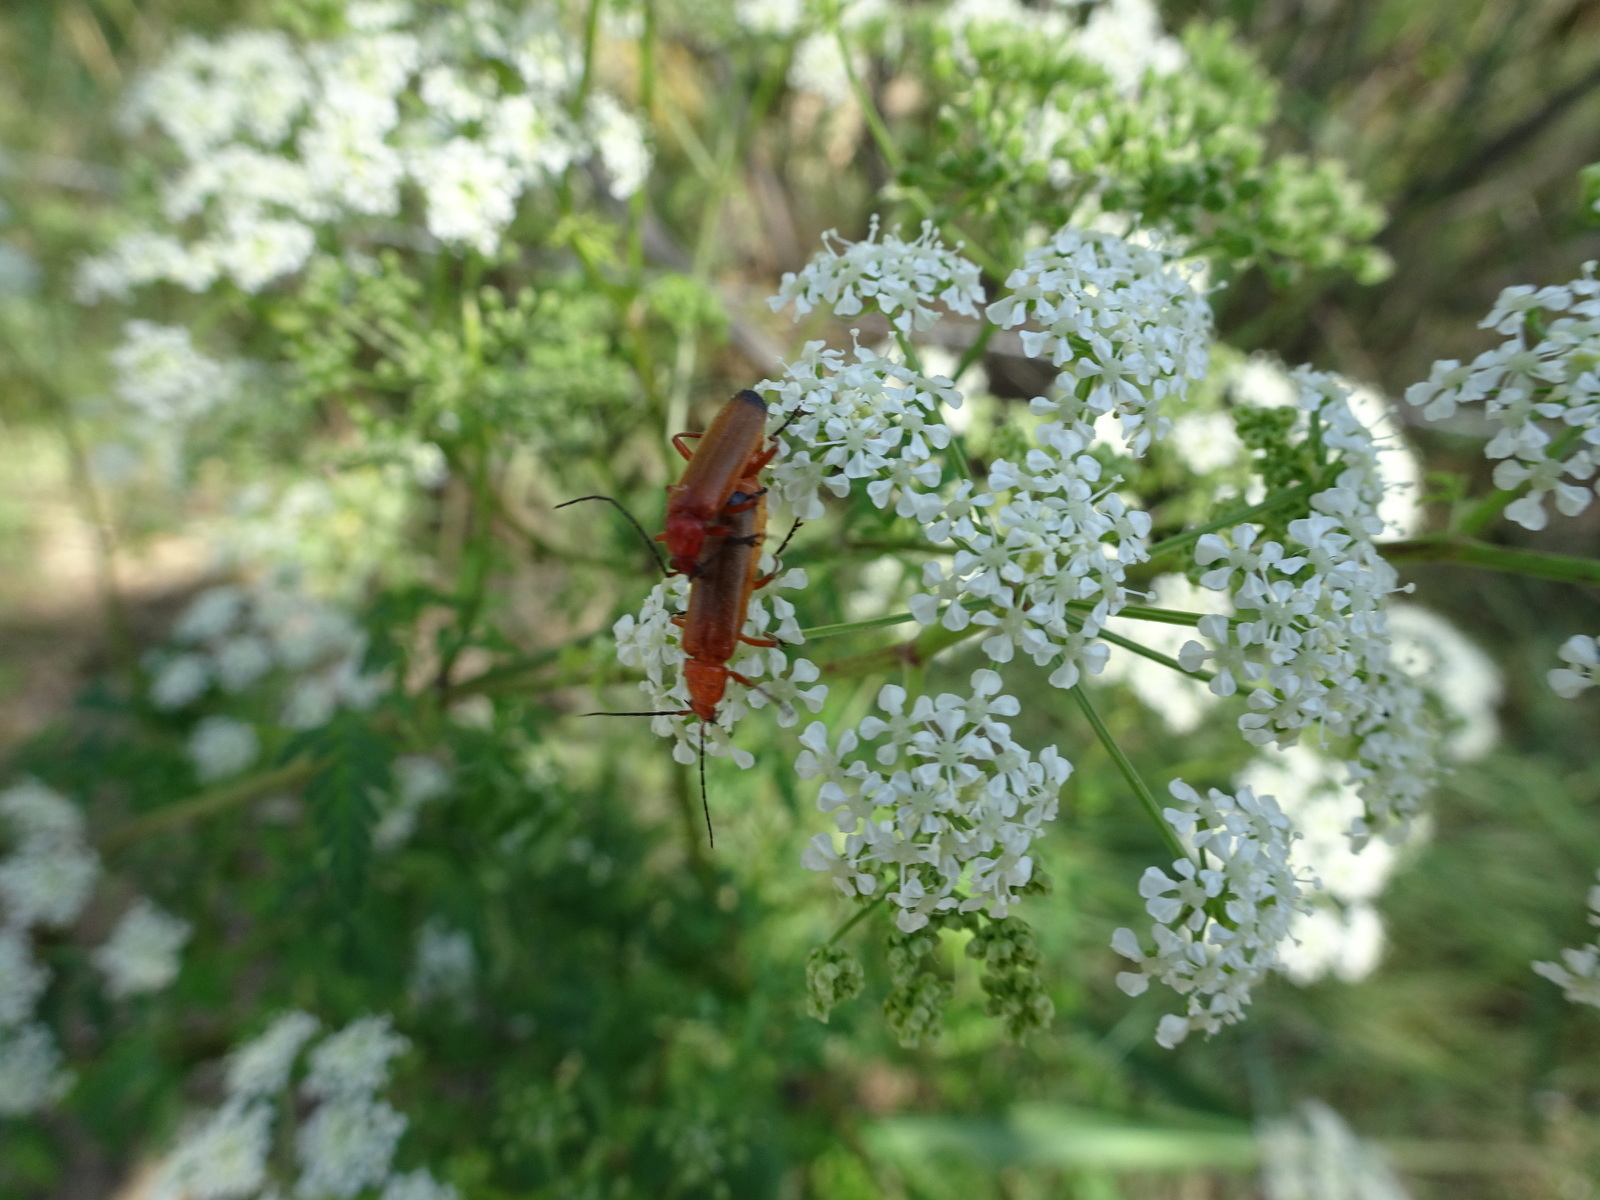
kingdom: Animalia
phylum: Arthropoda
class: Insecta
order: Coleoptera
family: Cantharidae
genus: Rhagonycha
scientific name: Rhagonycha fulva
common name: Common red soldier beetle
